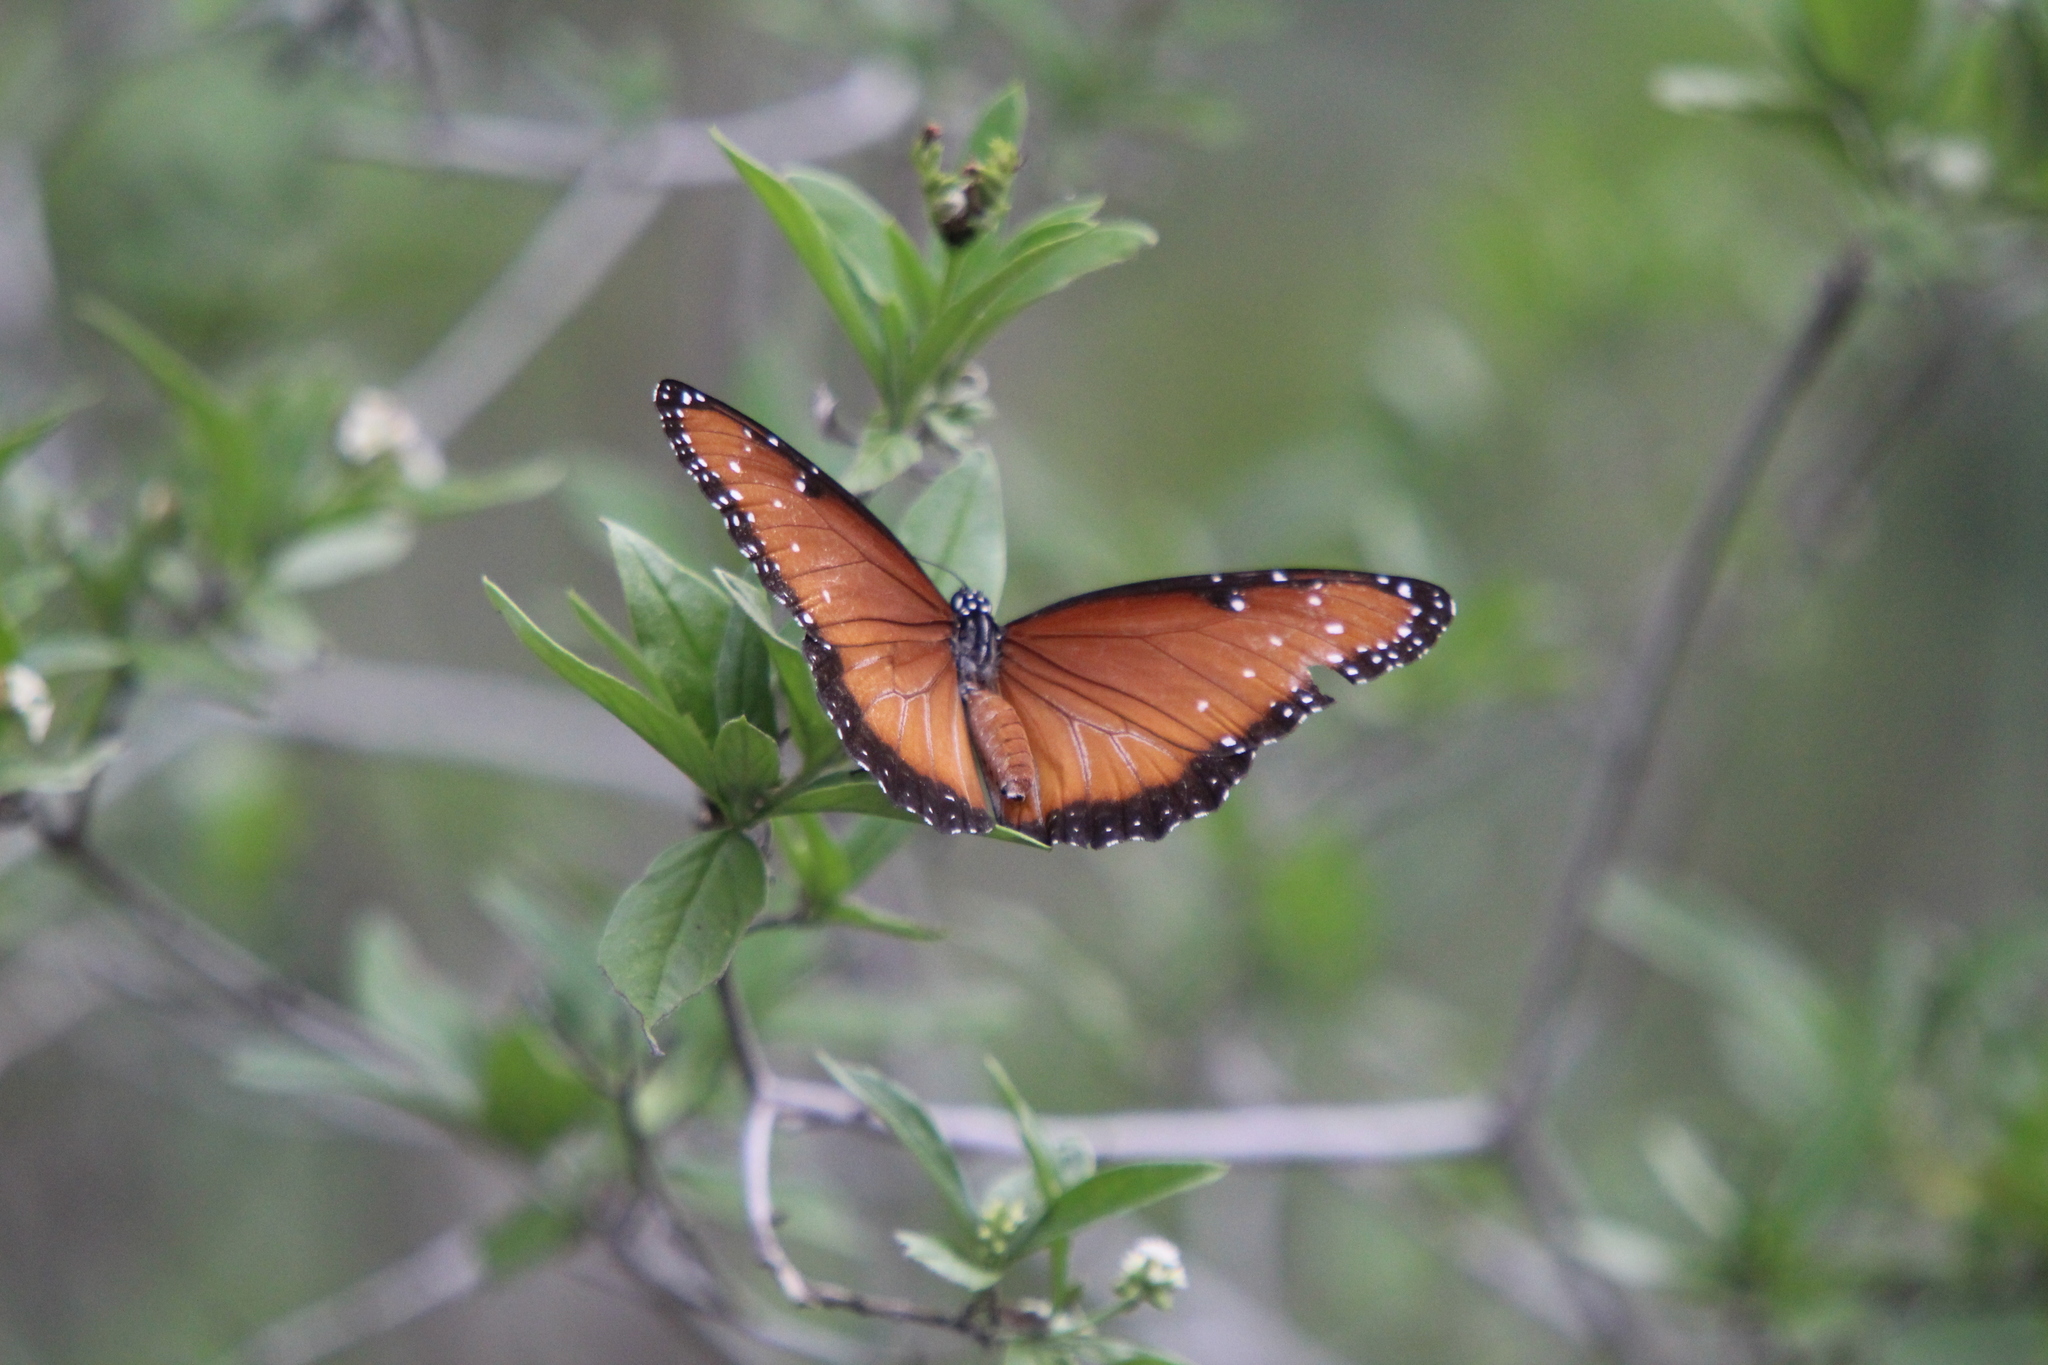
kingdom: Animalia
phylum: Arthropoda
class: Insecta
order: Lepidoptera
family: Nymphalidae
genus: Danaus
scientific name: Danaus gilippus
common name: Queen
